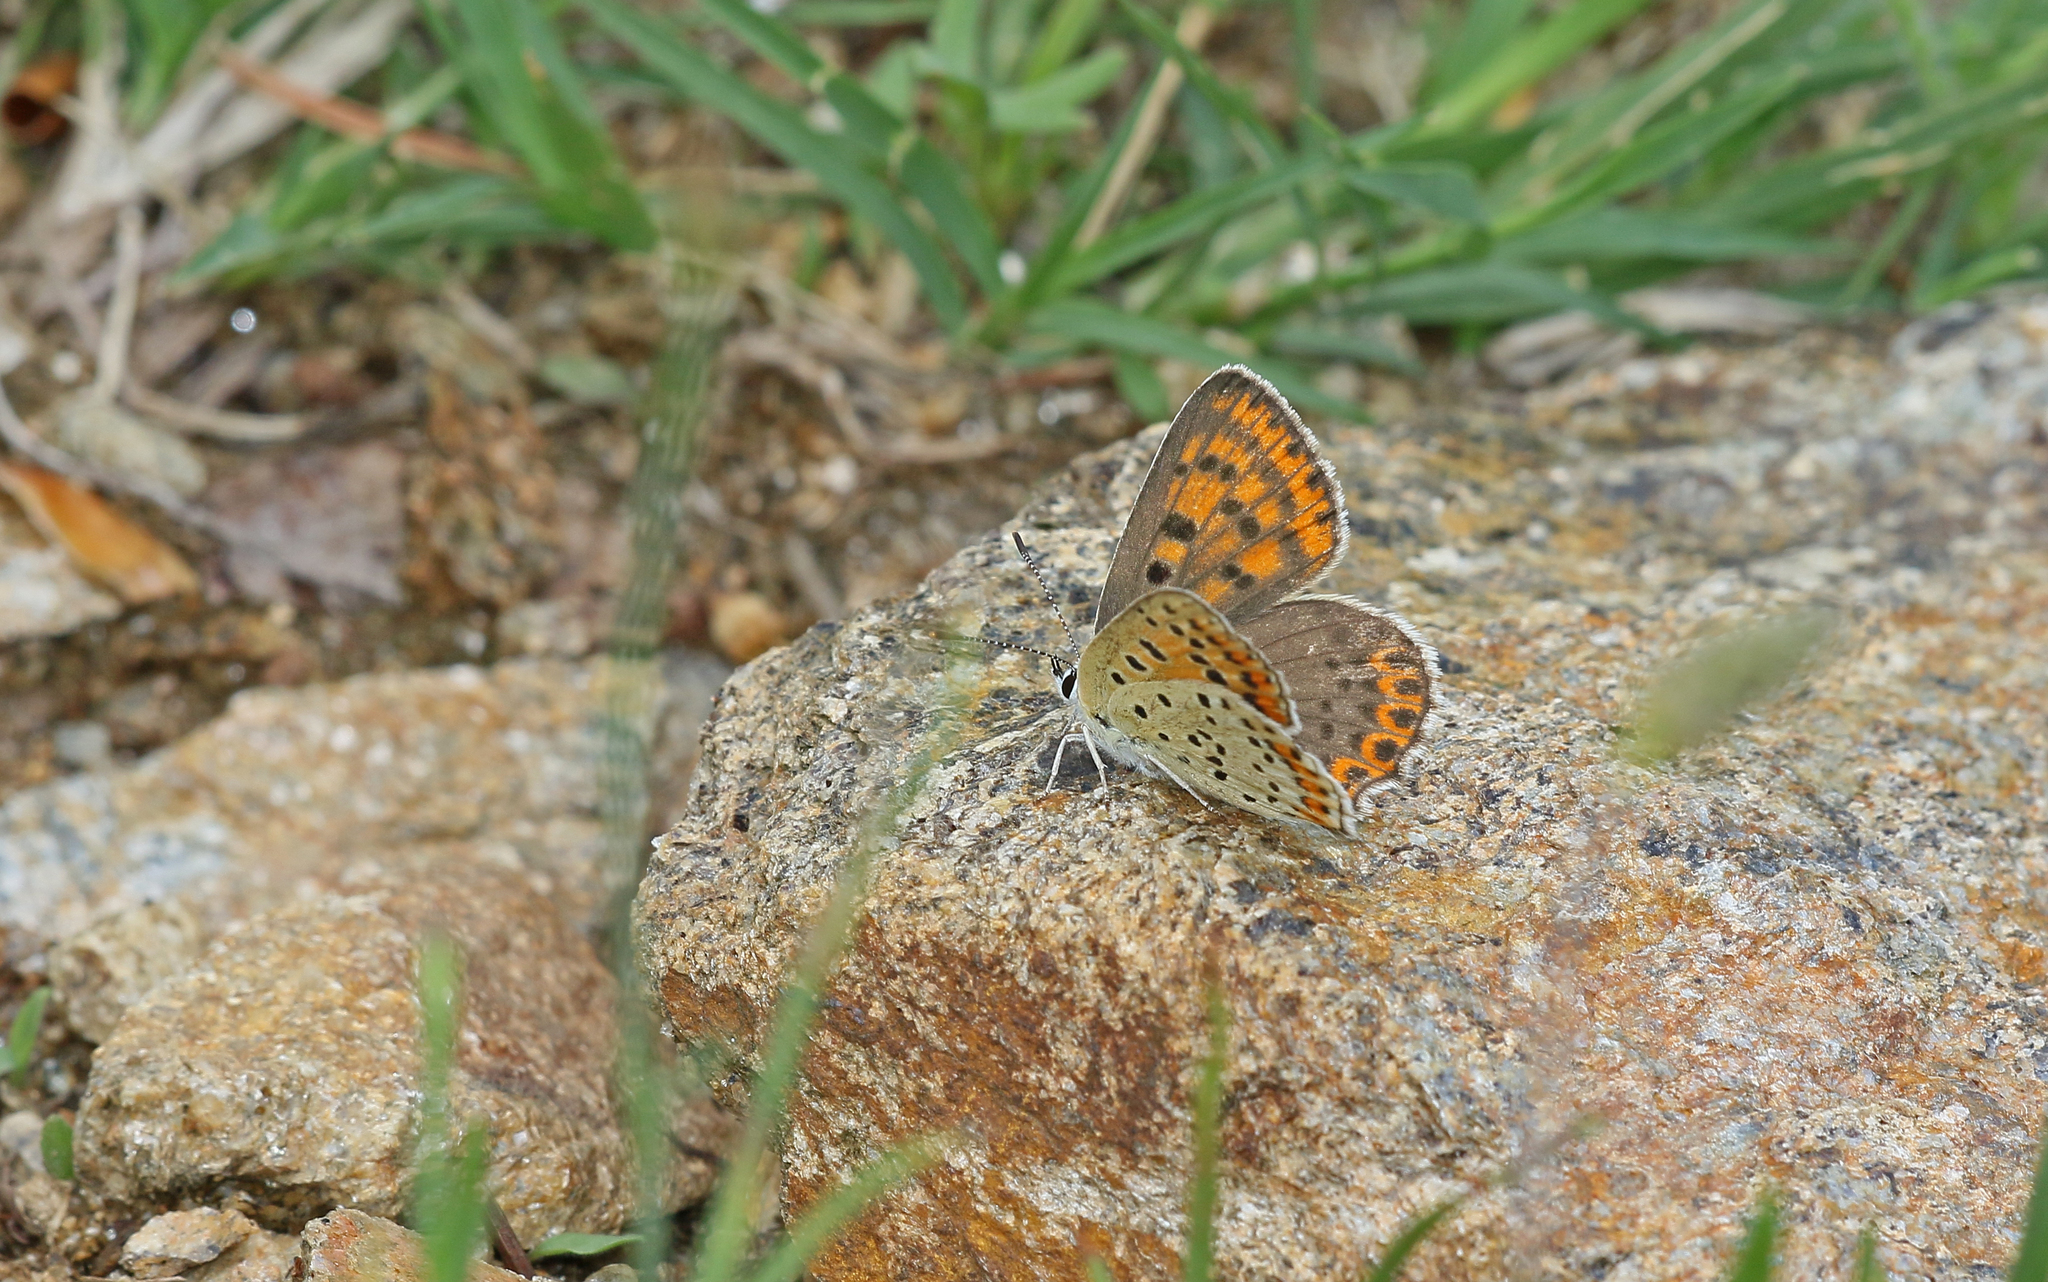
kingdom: Animalia
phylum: Arthropoda
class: Insecta
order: Lepidoptera
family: Lycaenidae
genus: Loweia
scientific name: Loweia tityrus
